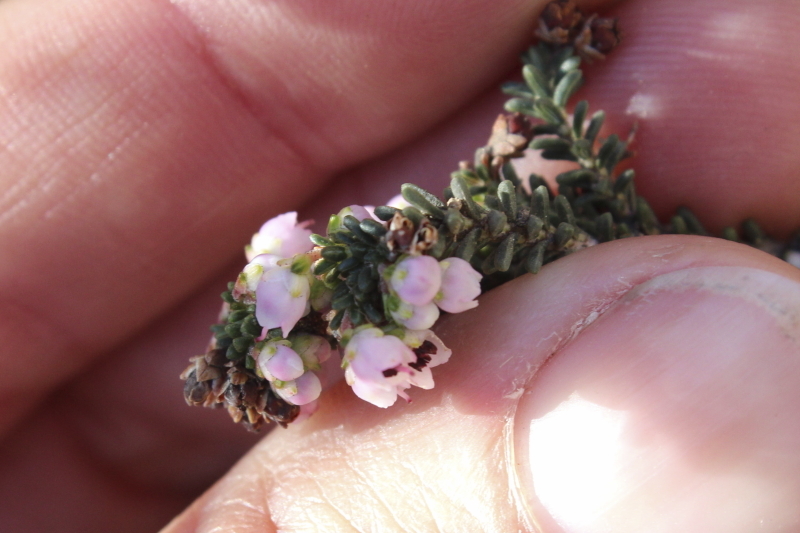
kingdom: Plantae
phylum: Tracheophyta
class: Magnoliopsida
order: Ericales
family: Ericaceae
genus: Erica
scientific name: Erica umbelliflora
